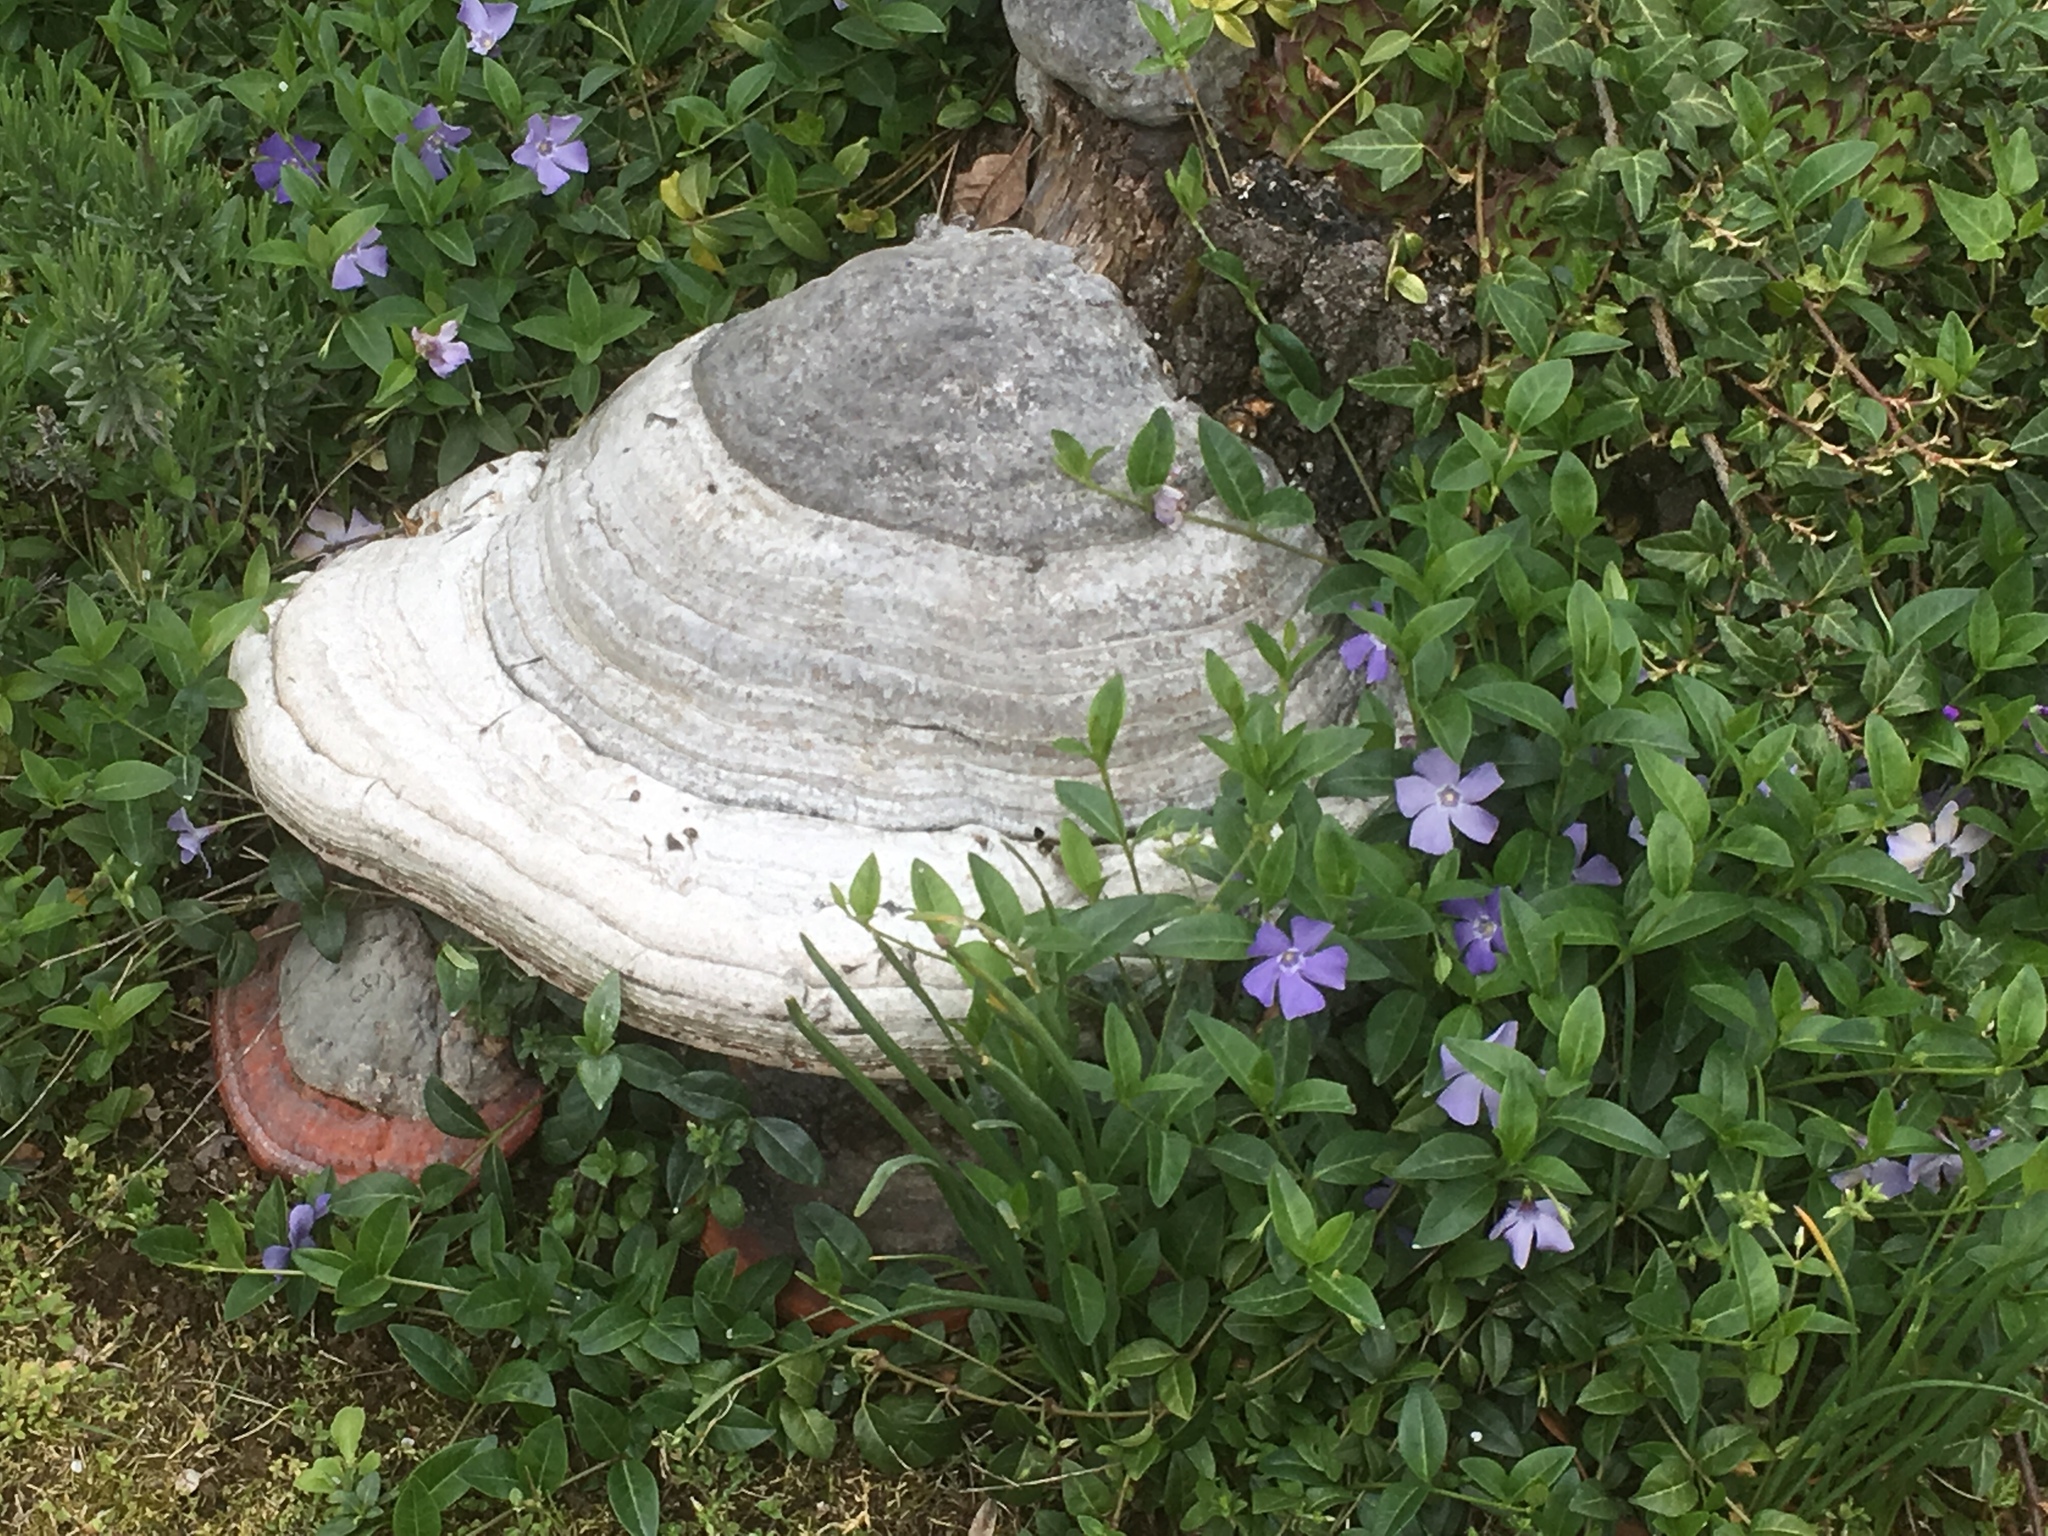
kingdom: Fungi
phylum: Basidiomycota
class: Agaricomycetes
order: Polyporales
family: Polyporaceae
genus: Fomes
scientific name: Fomes fomentarius
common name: Hoof fungus
